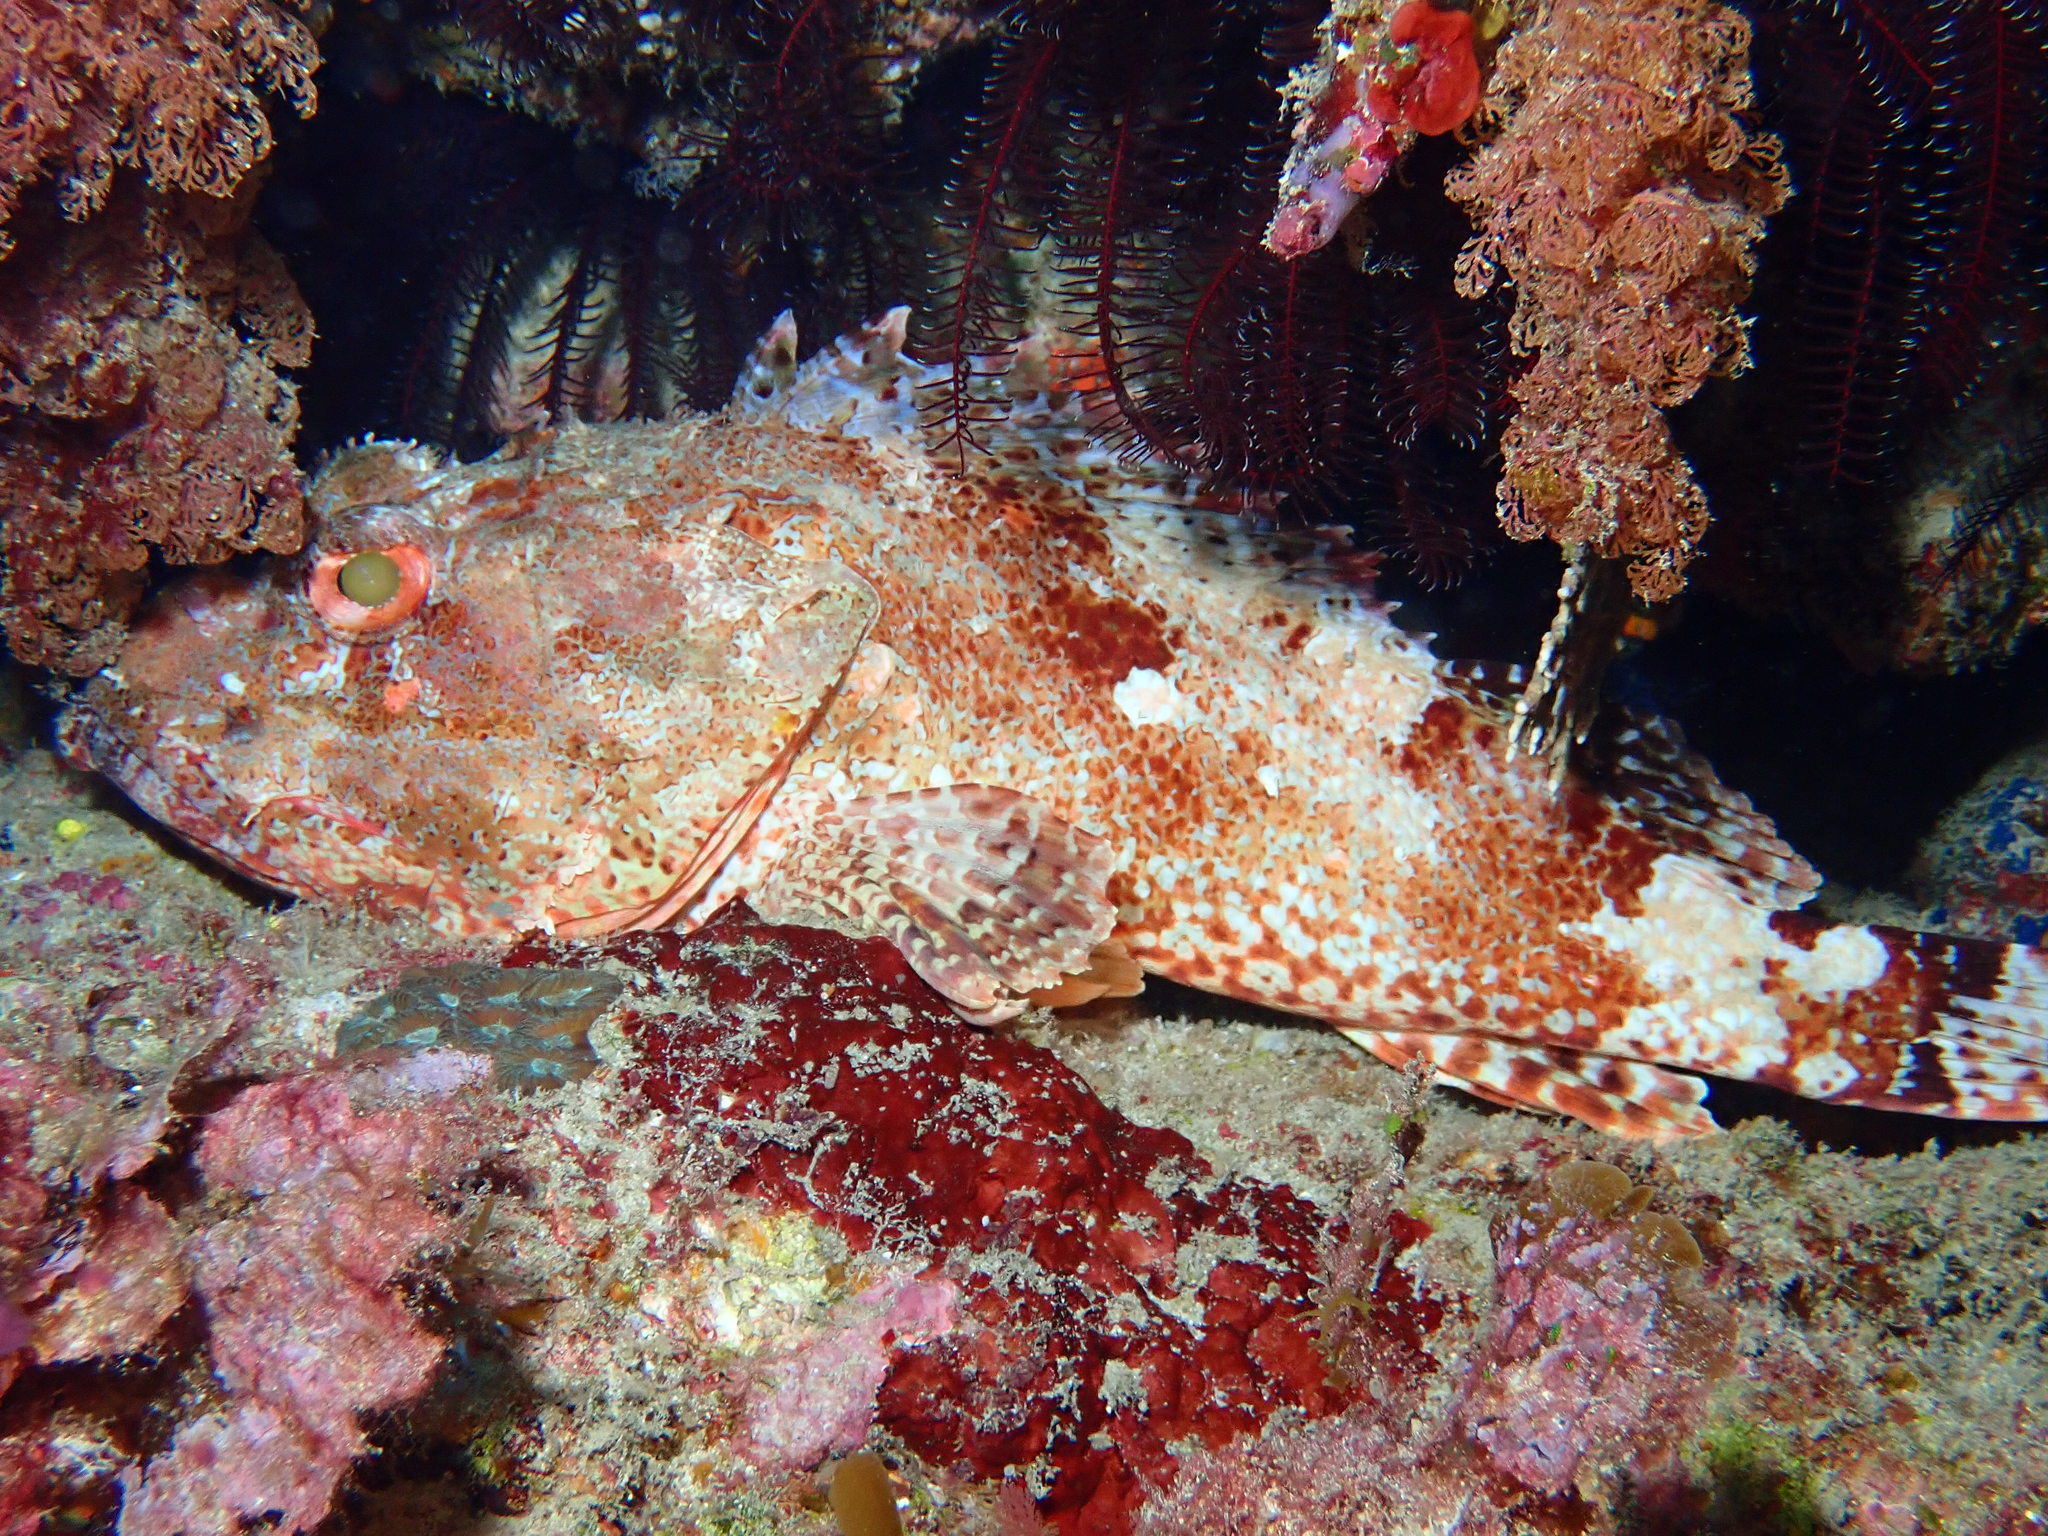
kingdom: Animalia
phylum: Chordata
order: Scorpaeniformes
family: Scorpaenidae
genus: Scorpaena
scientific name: Scorpaena cardinalis
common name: Cardinal scorpionfish
